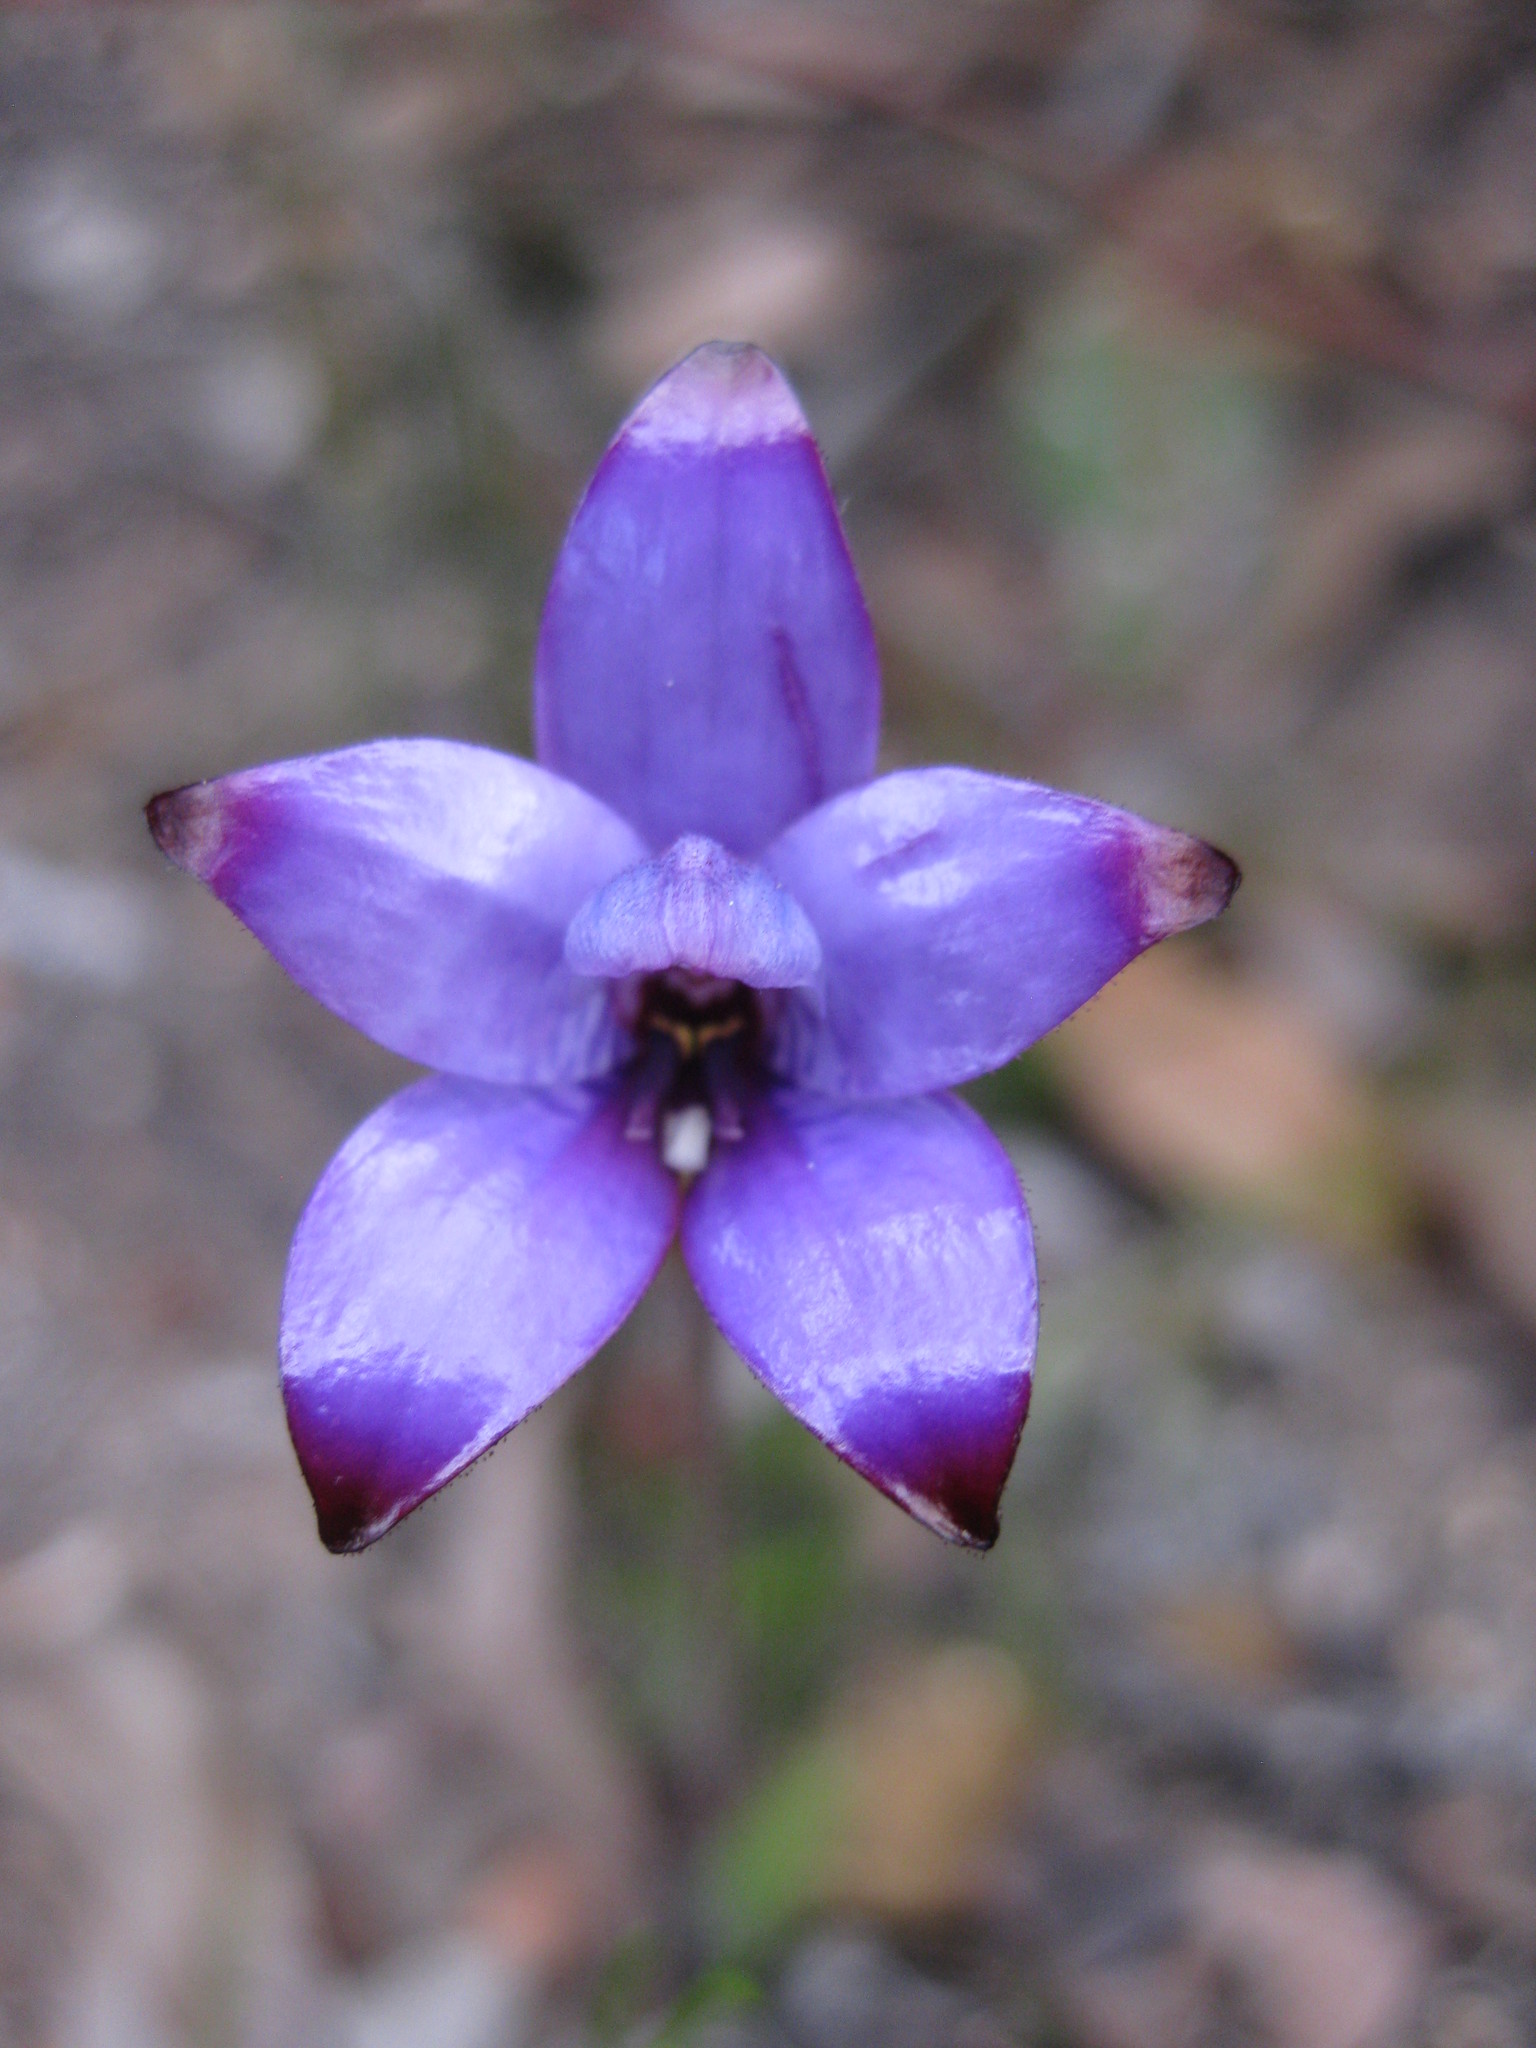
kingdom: Plantae
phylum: Tracheophyta
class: Liliopsida
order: Asparagales
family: Orchidaceae
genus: Caladenia
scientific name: Caladenia brunonis
